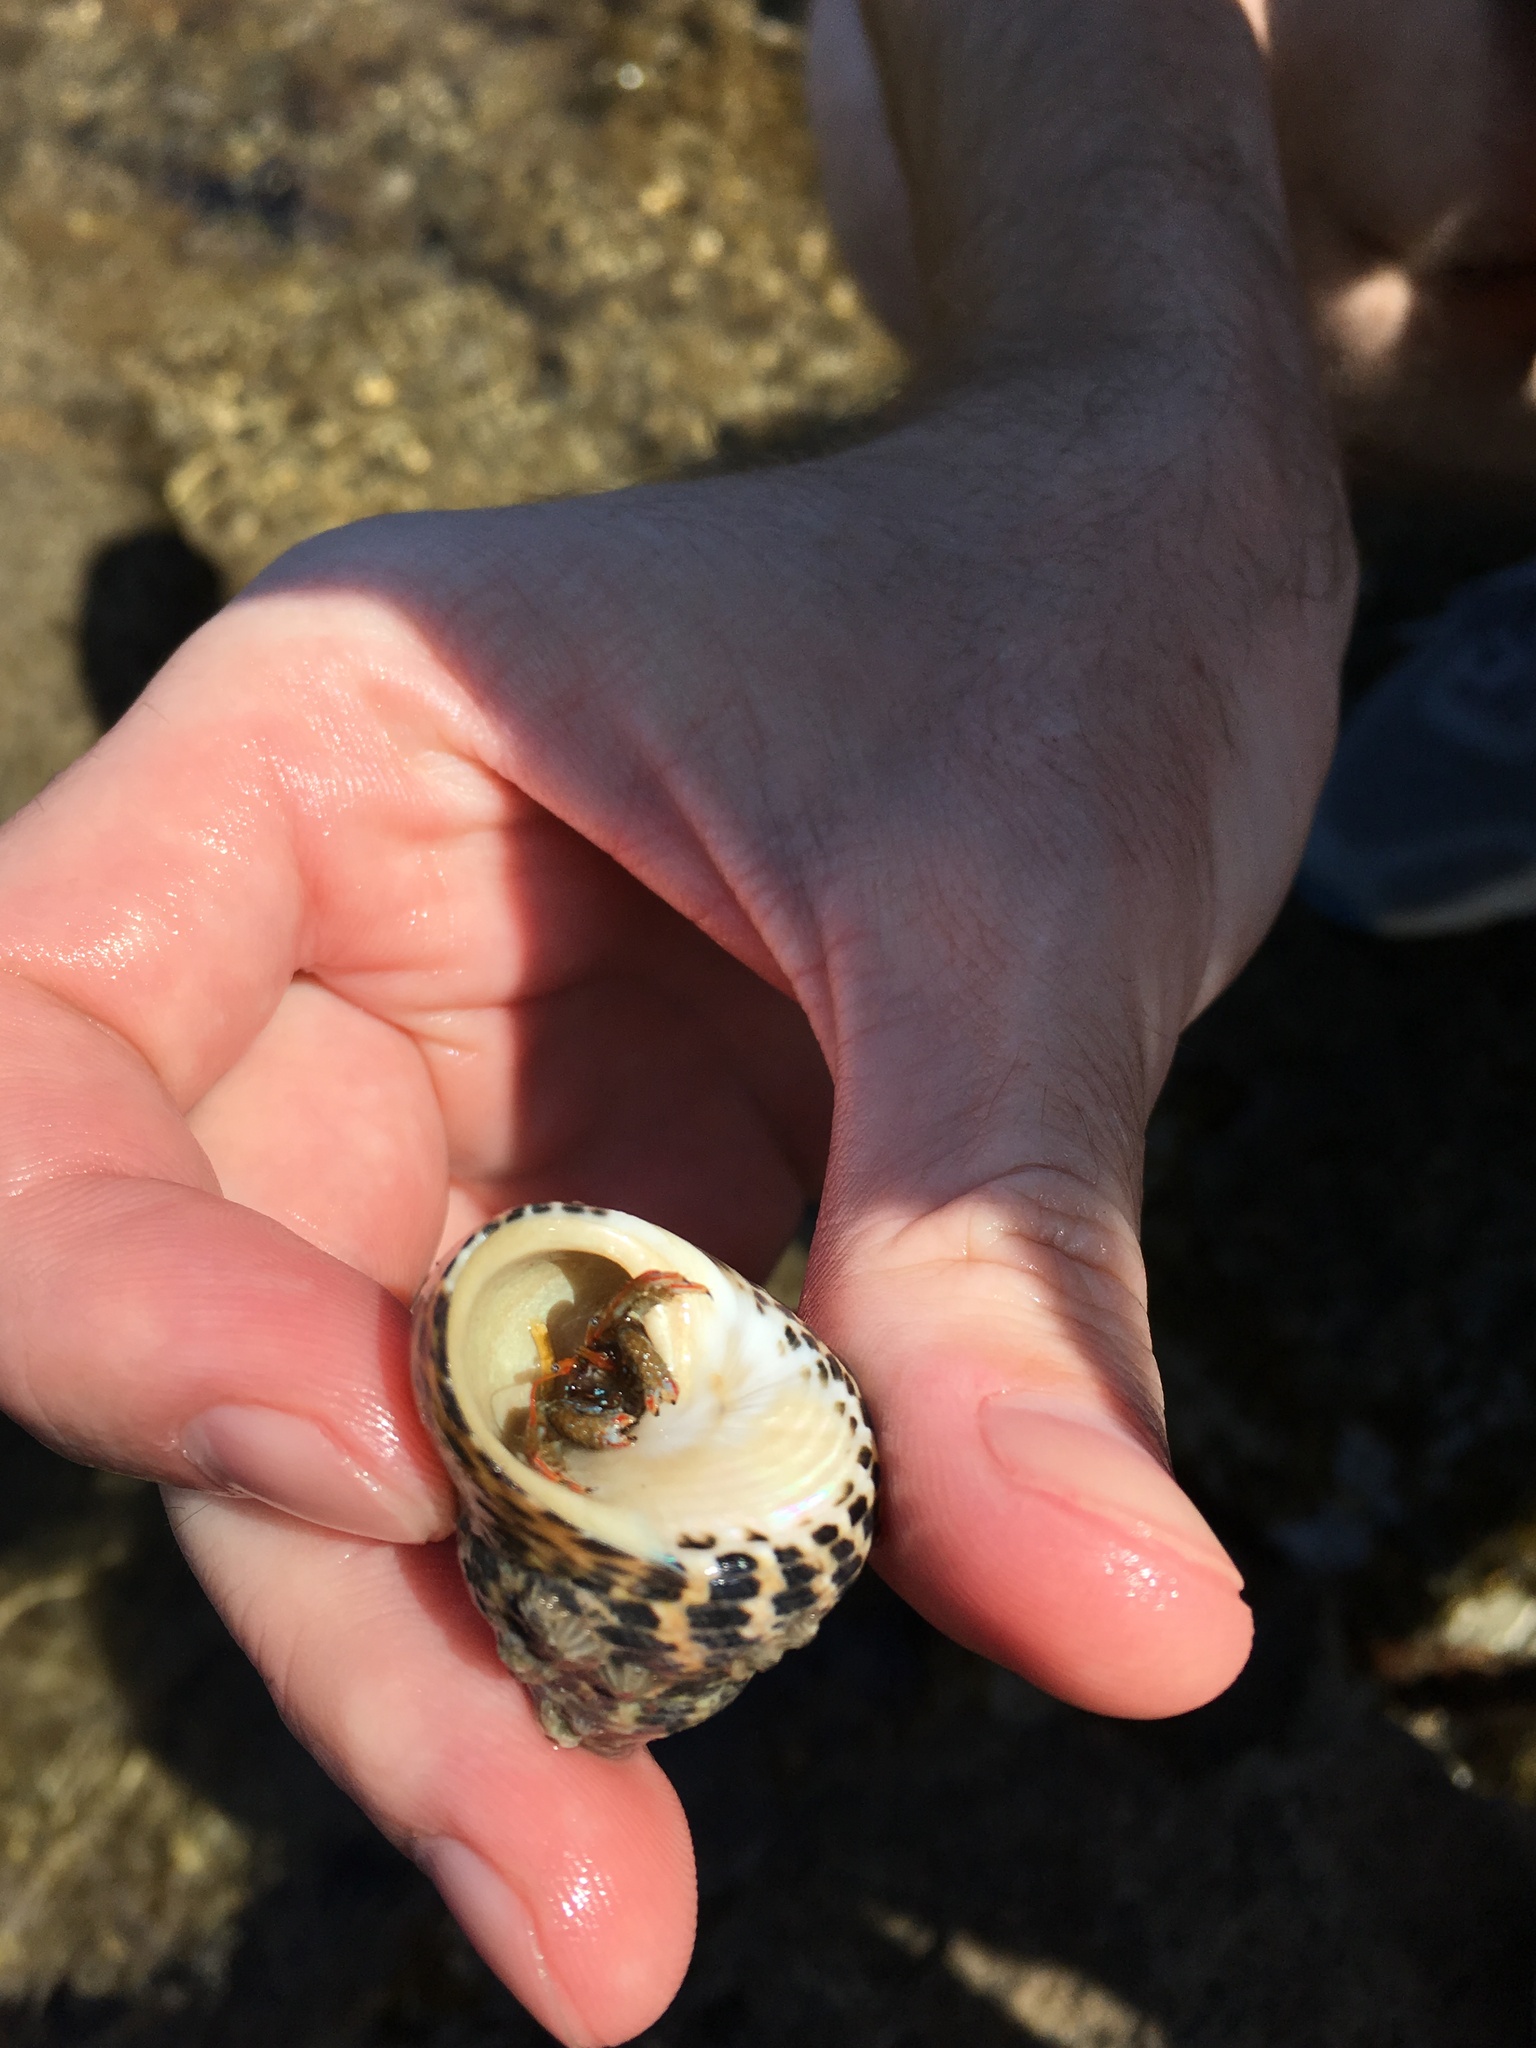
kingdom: Animalia
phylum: Mollusca
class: Gastropoda
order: Trochida
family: Trochidae
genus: Phorcus
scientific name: Phorcus turbinatus
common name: Turbinate monodont
